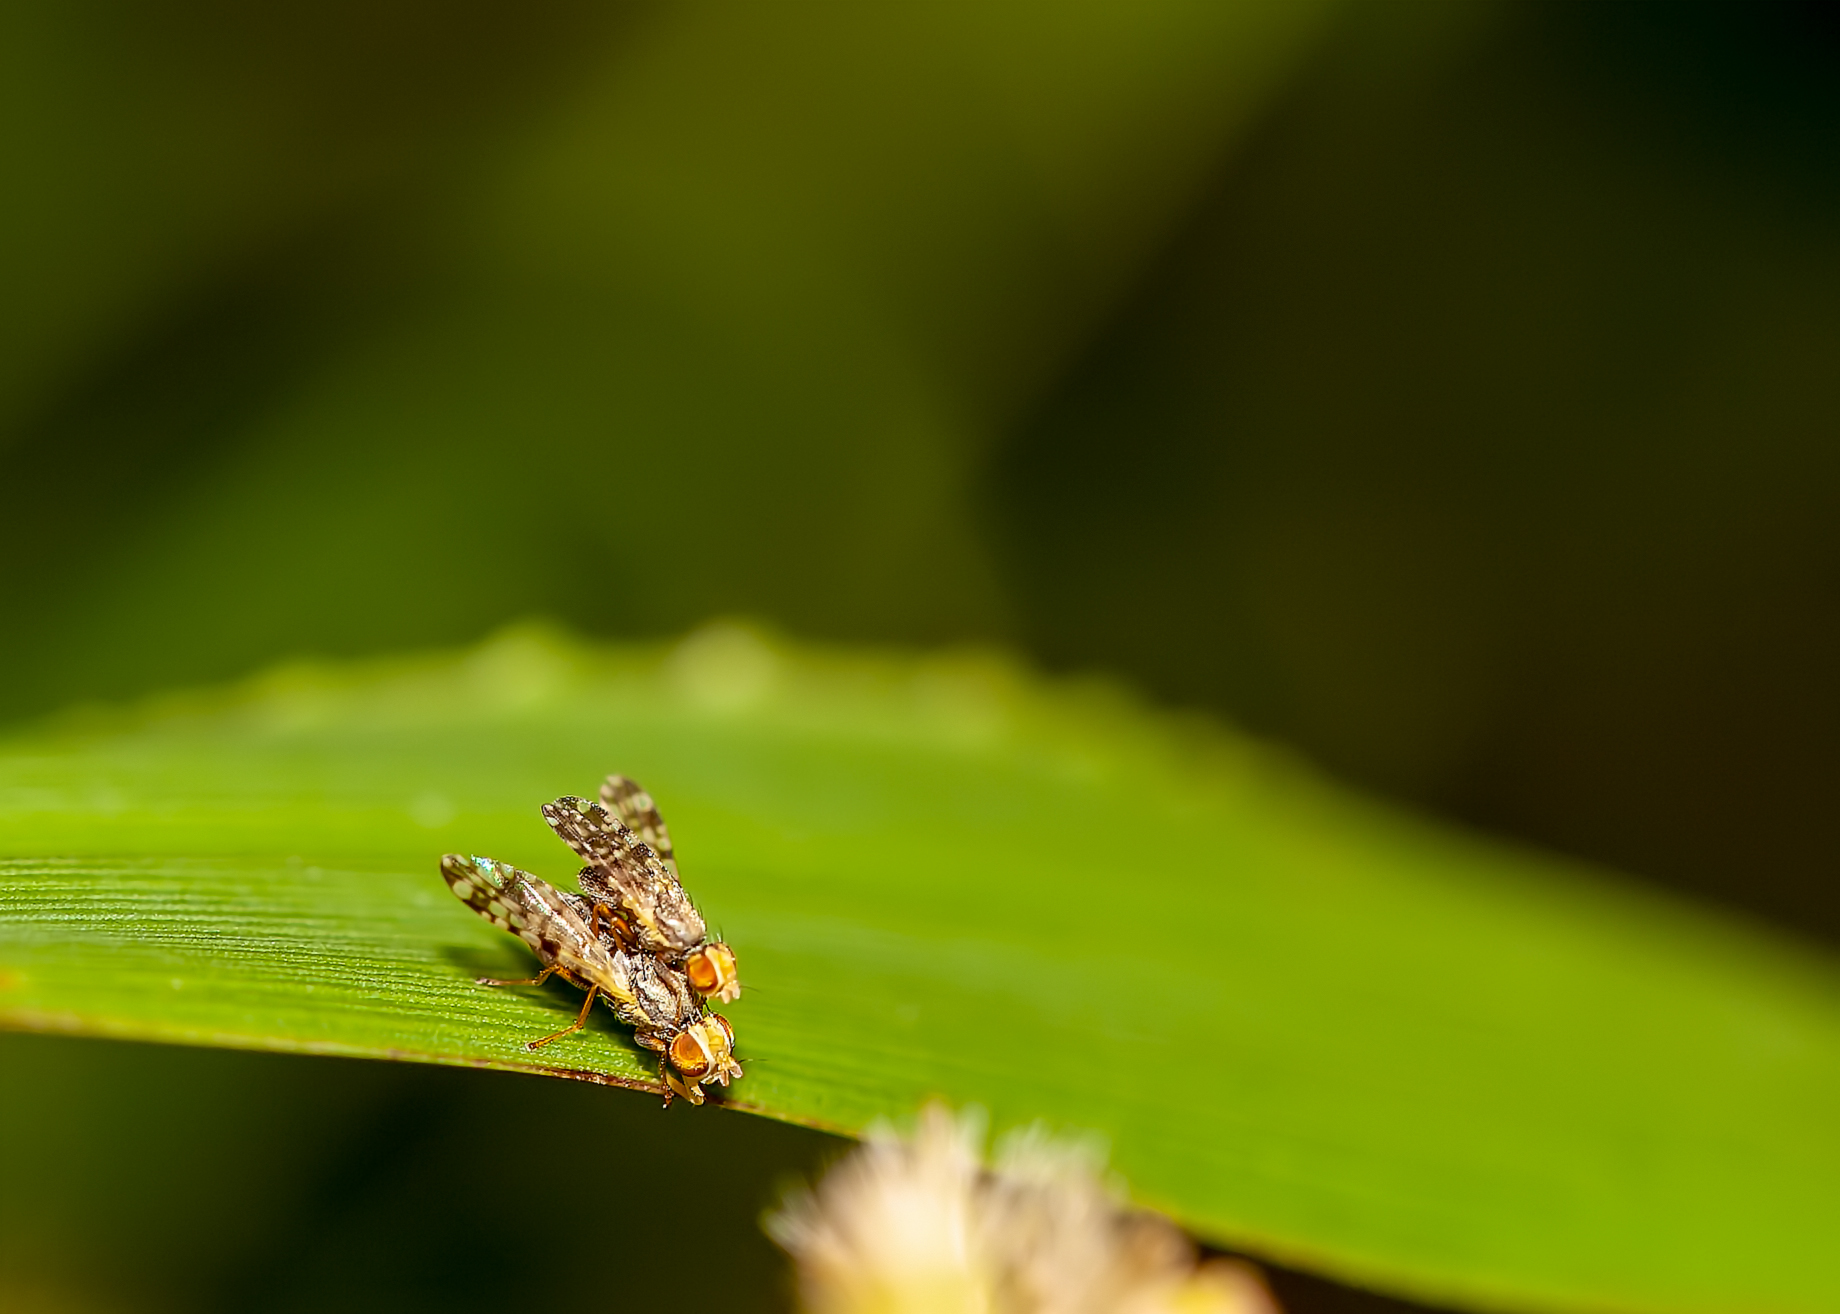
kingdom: Animalia
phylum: Arthropoda
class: Insecta
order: Diptera
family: Tephritidae
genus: Dioxyna
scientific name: Dioxyna picciola
